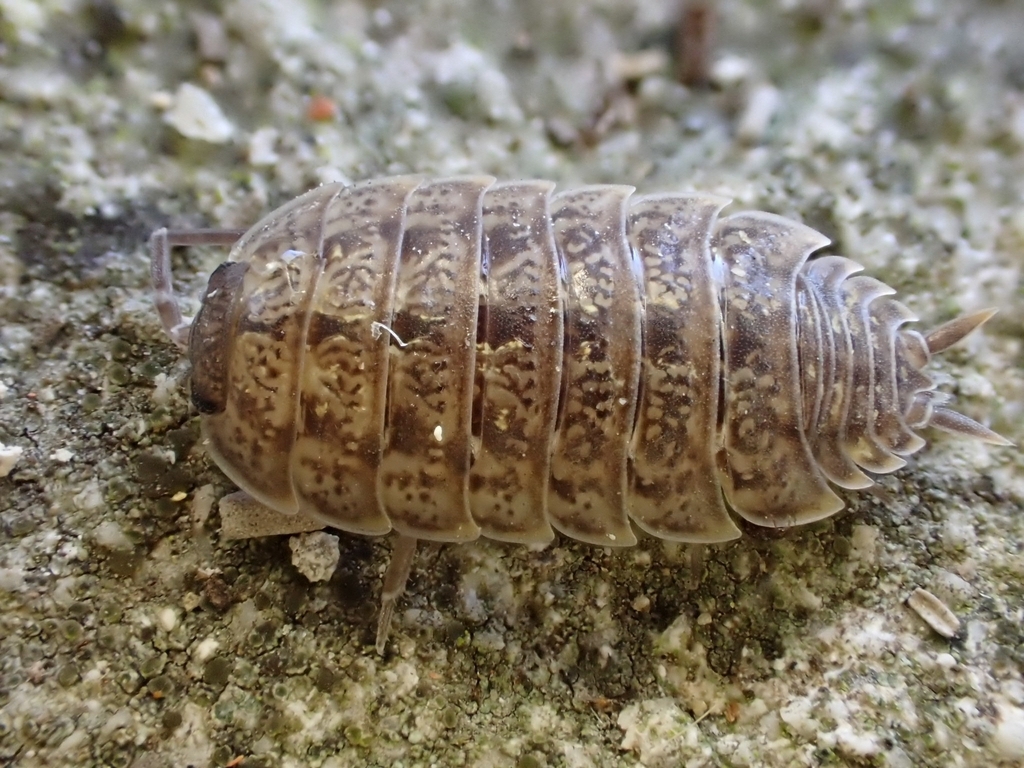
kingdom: Animalia
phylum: Arthropoda
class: Malacostraca
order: Isopoda
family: Porcellionidae
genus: Porcellio
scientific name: Porcellio monticola
